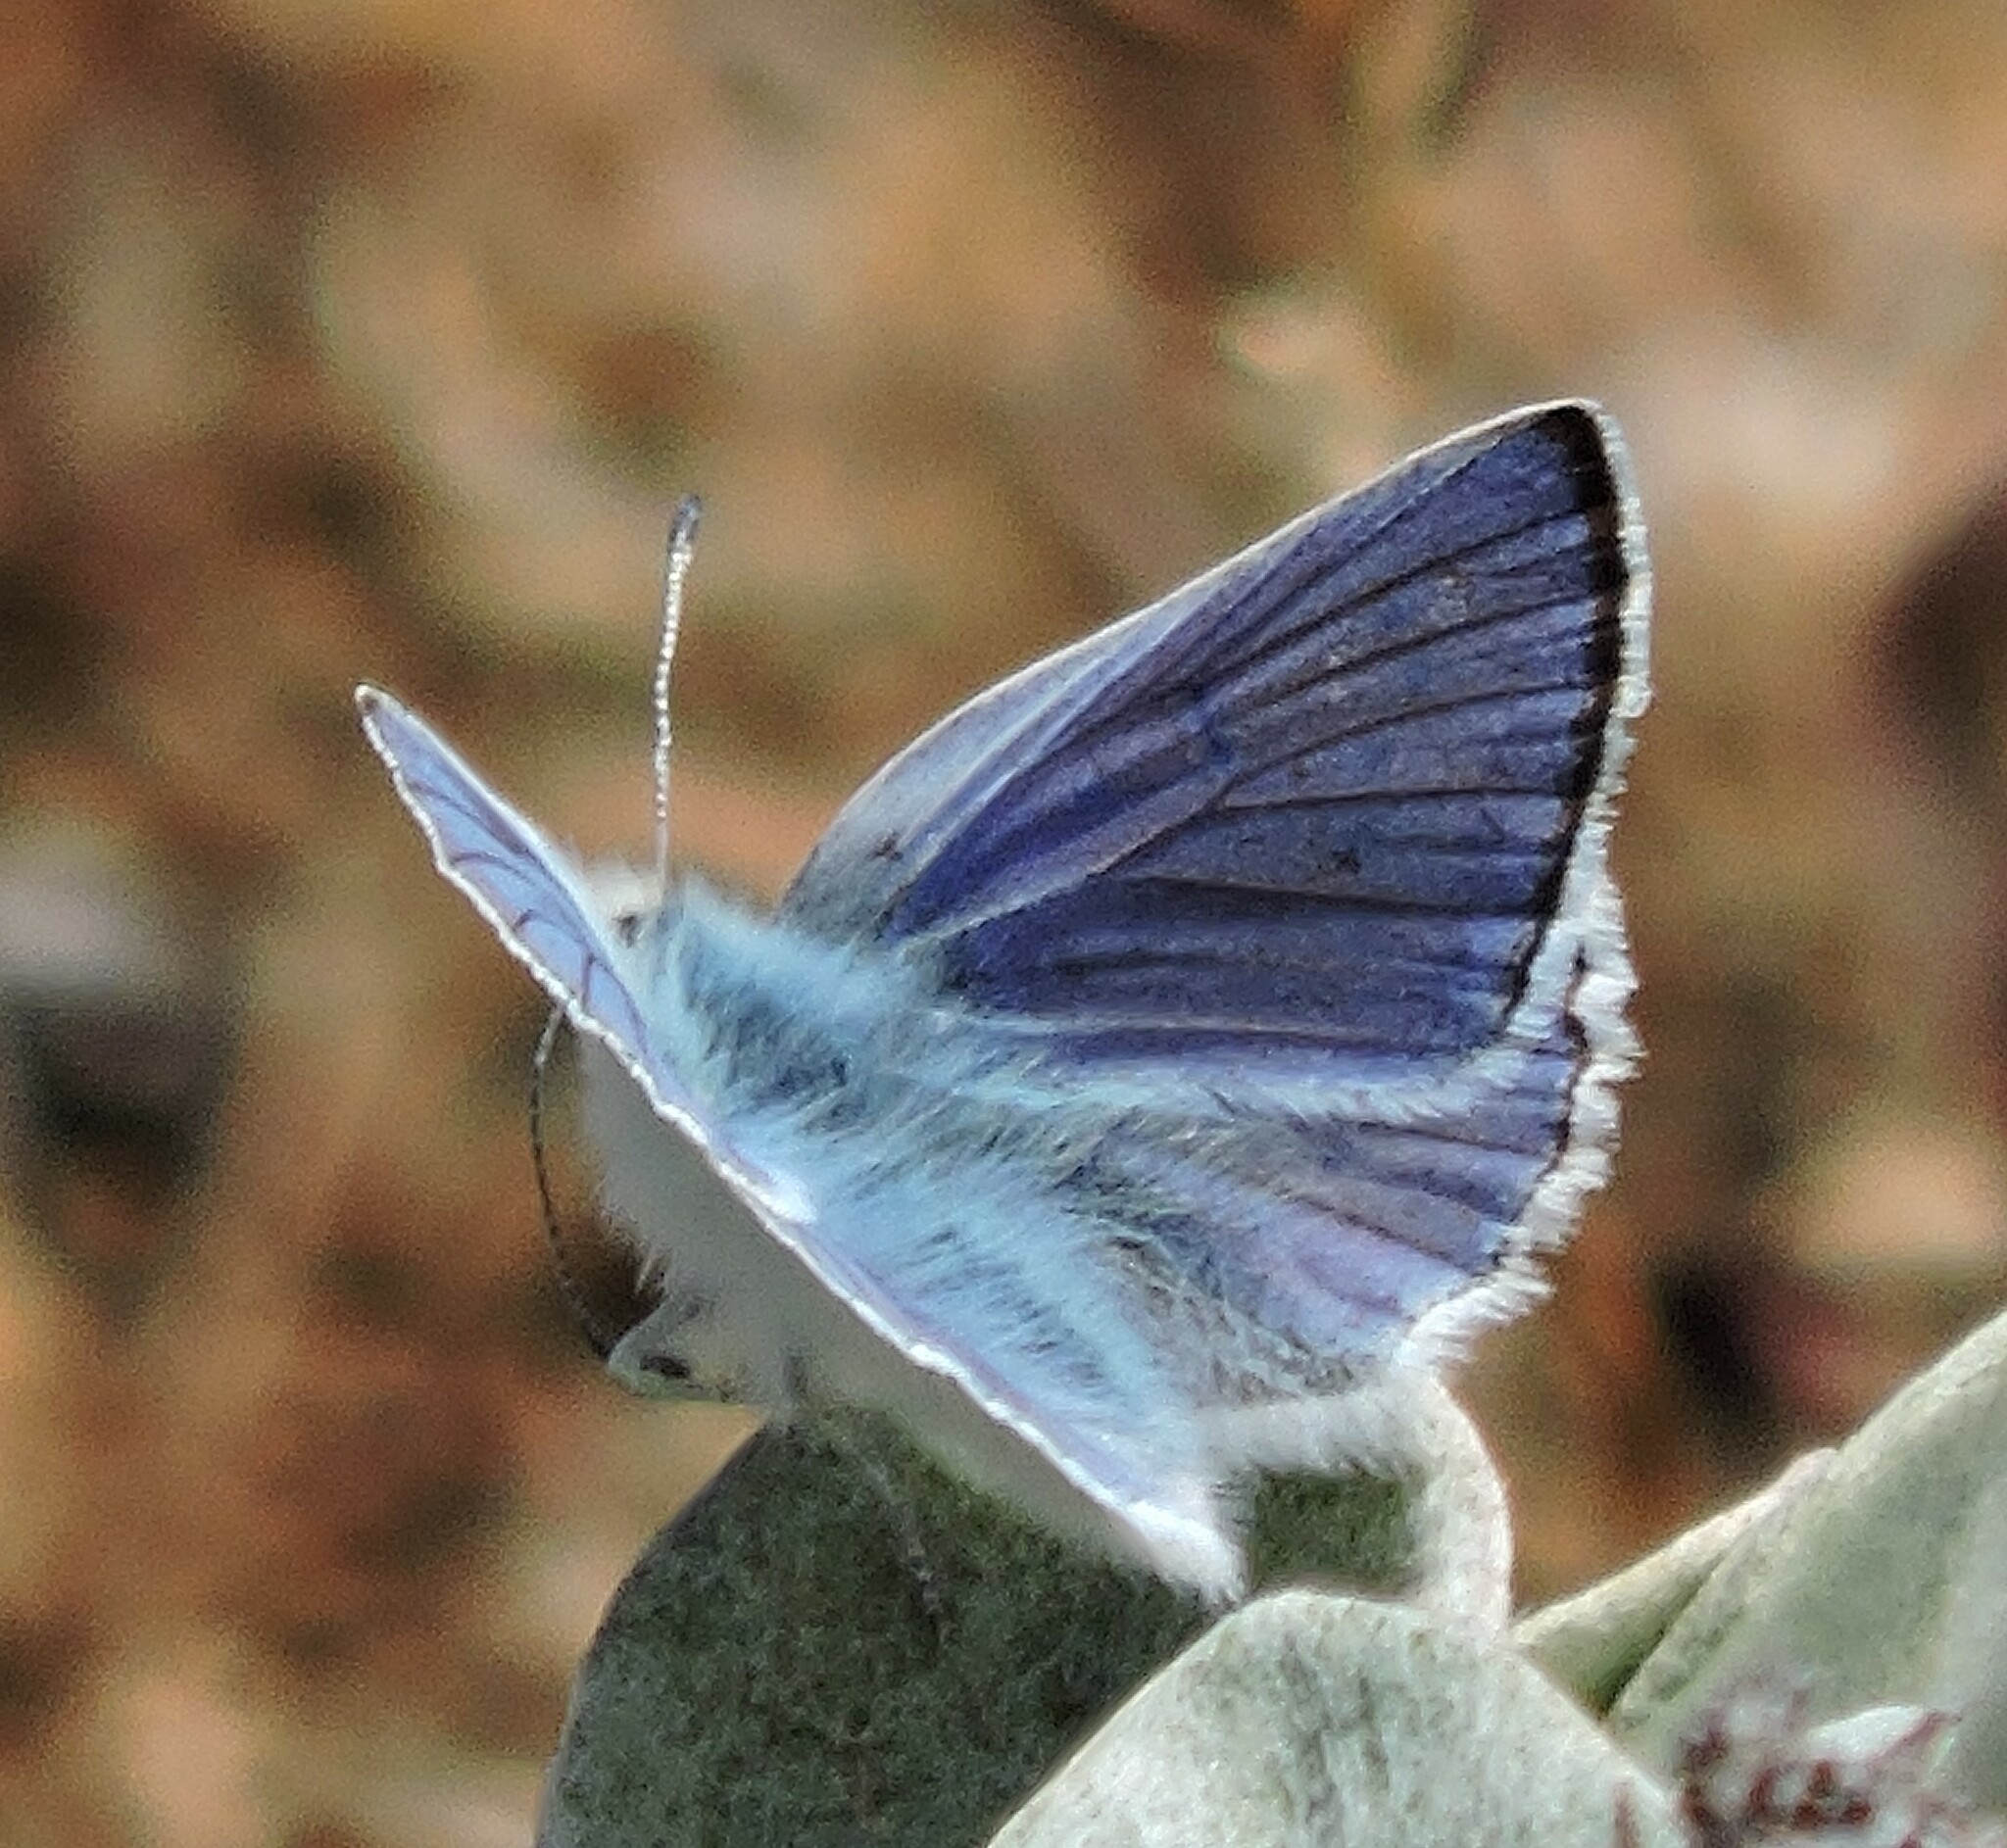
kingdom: Animalia
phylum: Arthropoda
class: Insecta
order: Lepidoptera
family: Lycaenidae
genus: Tharsalea
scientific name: Tharsalea heteronea
